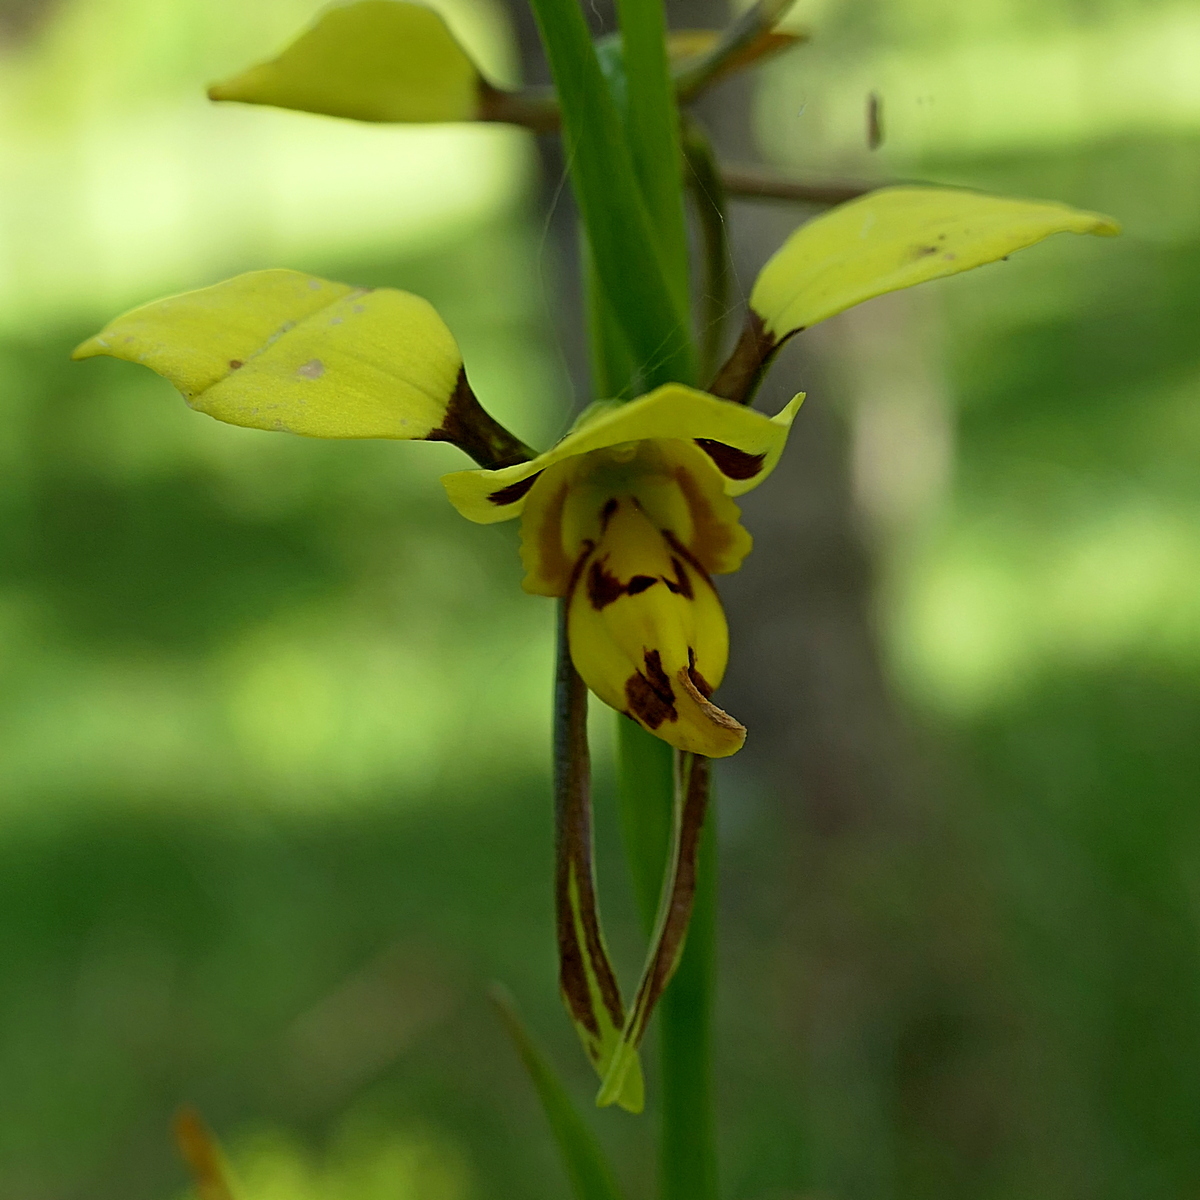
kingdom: Plantae
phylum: Tracheophyta
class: Liliopsida
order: Asparagales
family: Orchidaceae
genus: Diuris
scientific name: Diuris sulphurea
